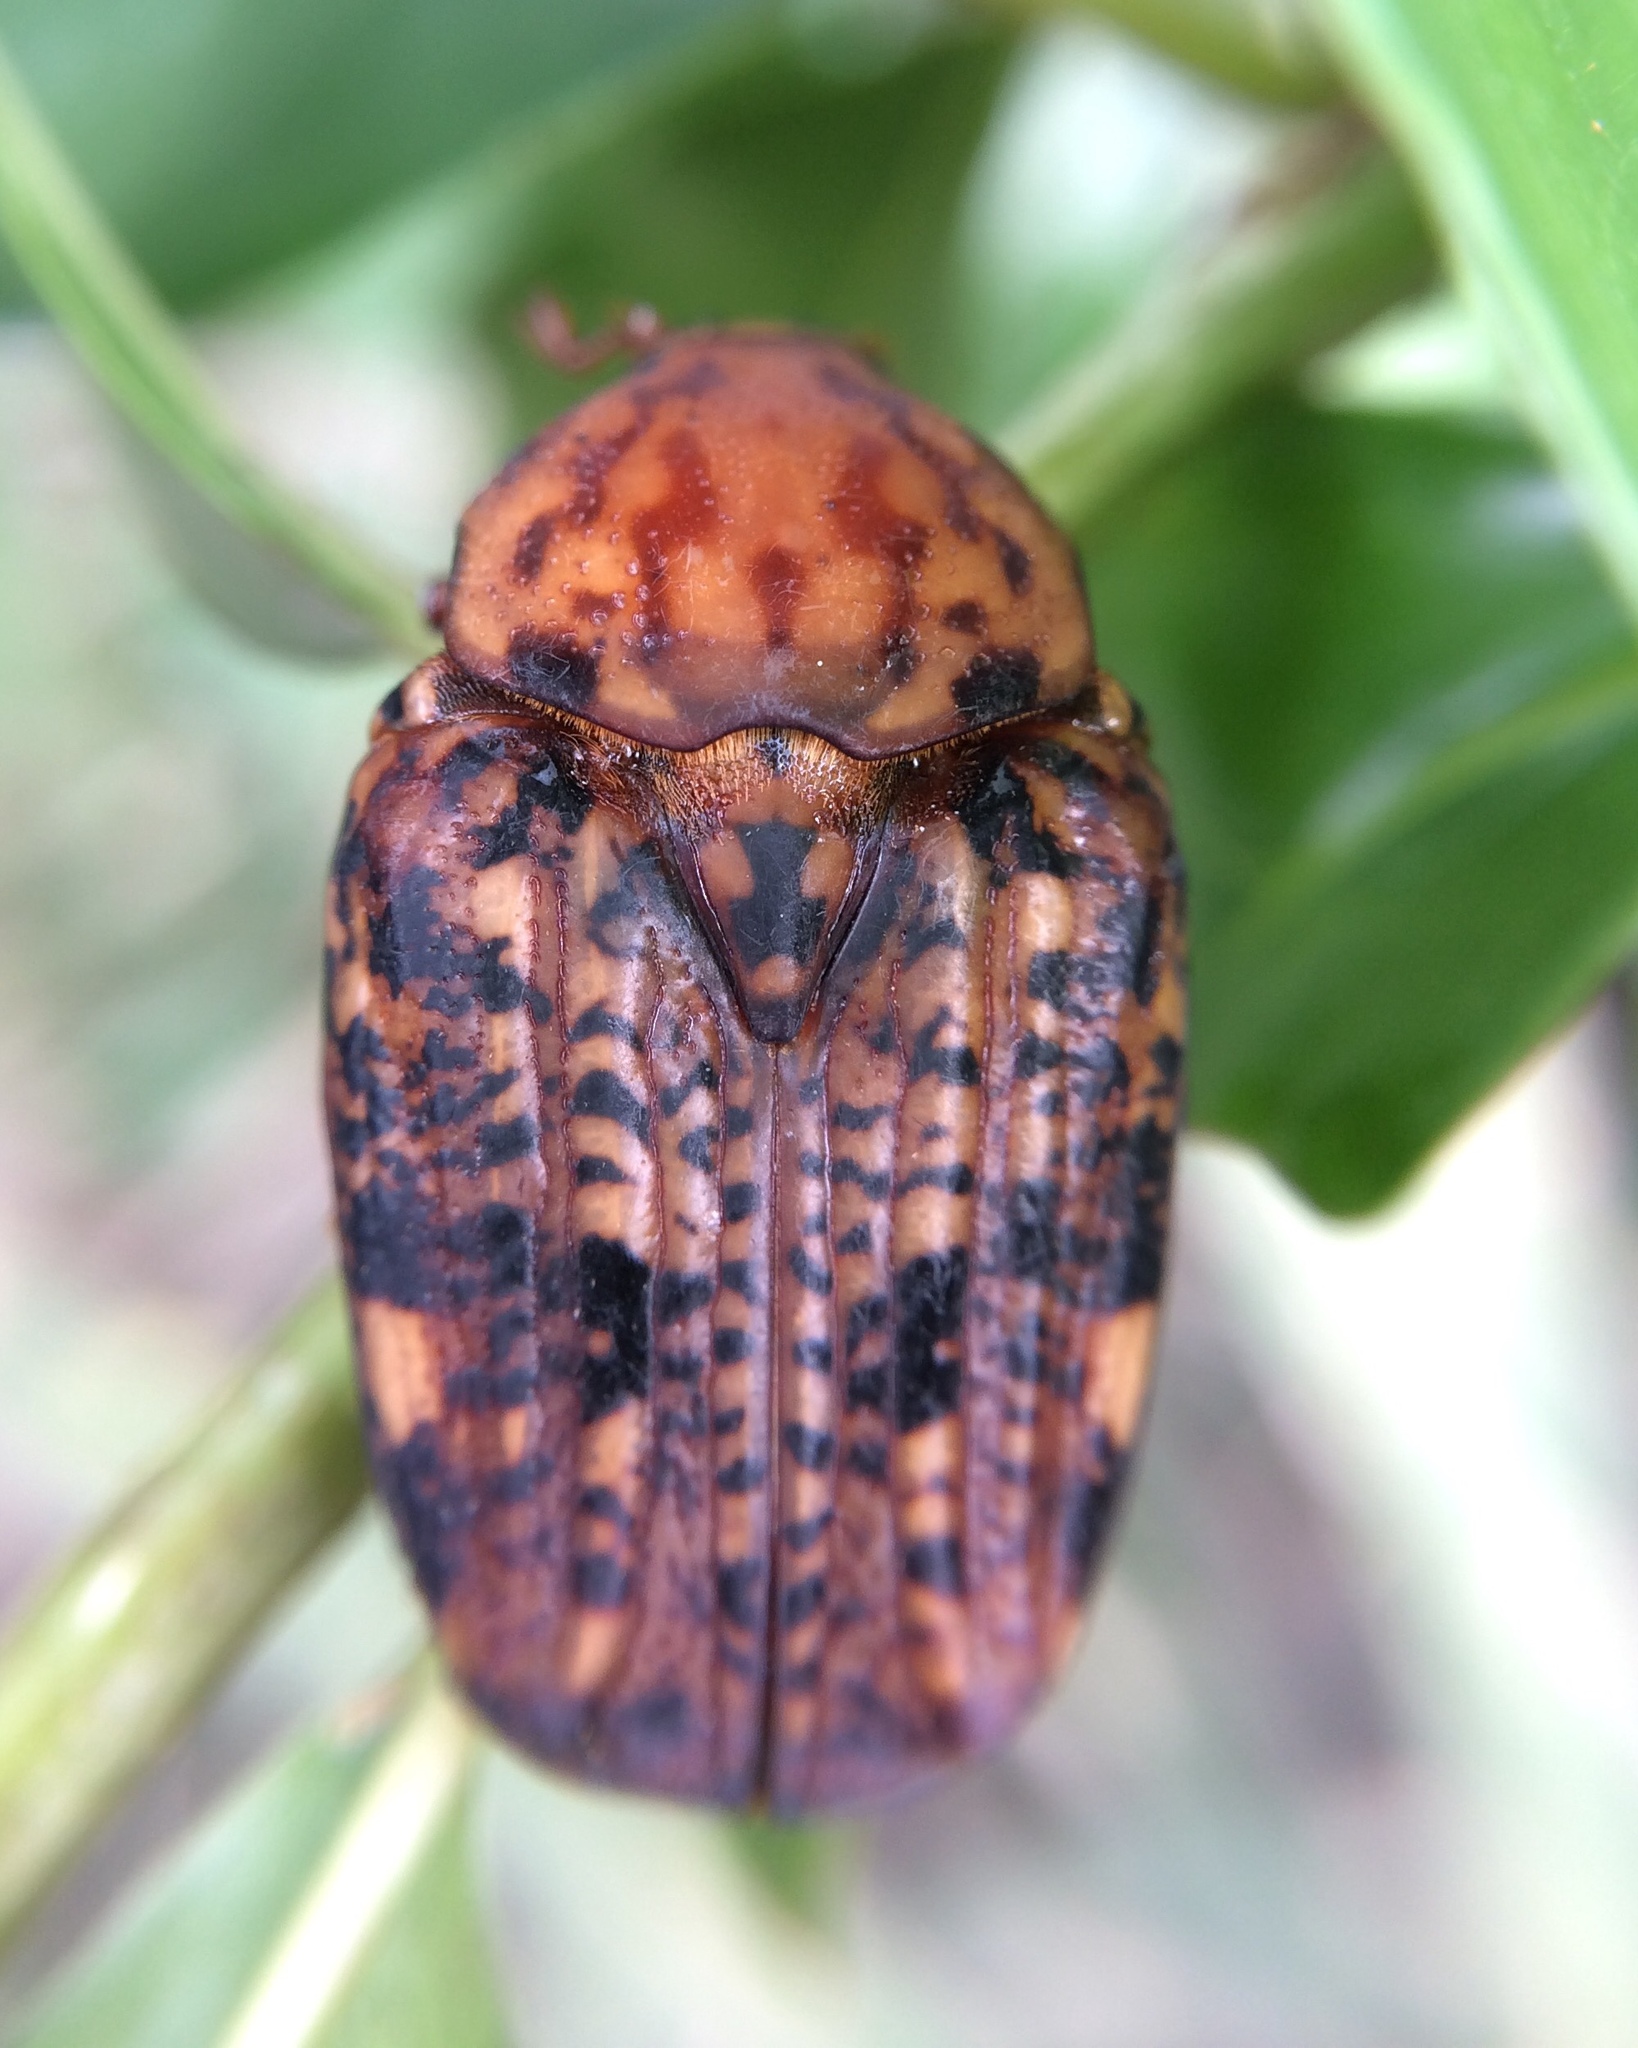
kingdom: Animalia
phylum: Arthropoda
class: Insecta
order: Coleoptera
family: Scarabaeidae
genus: Porphyronota
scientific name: Porphyronota maculatissima
